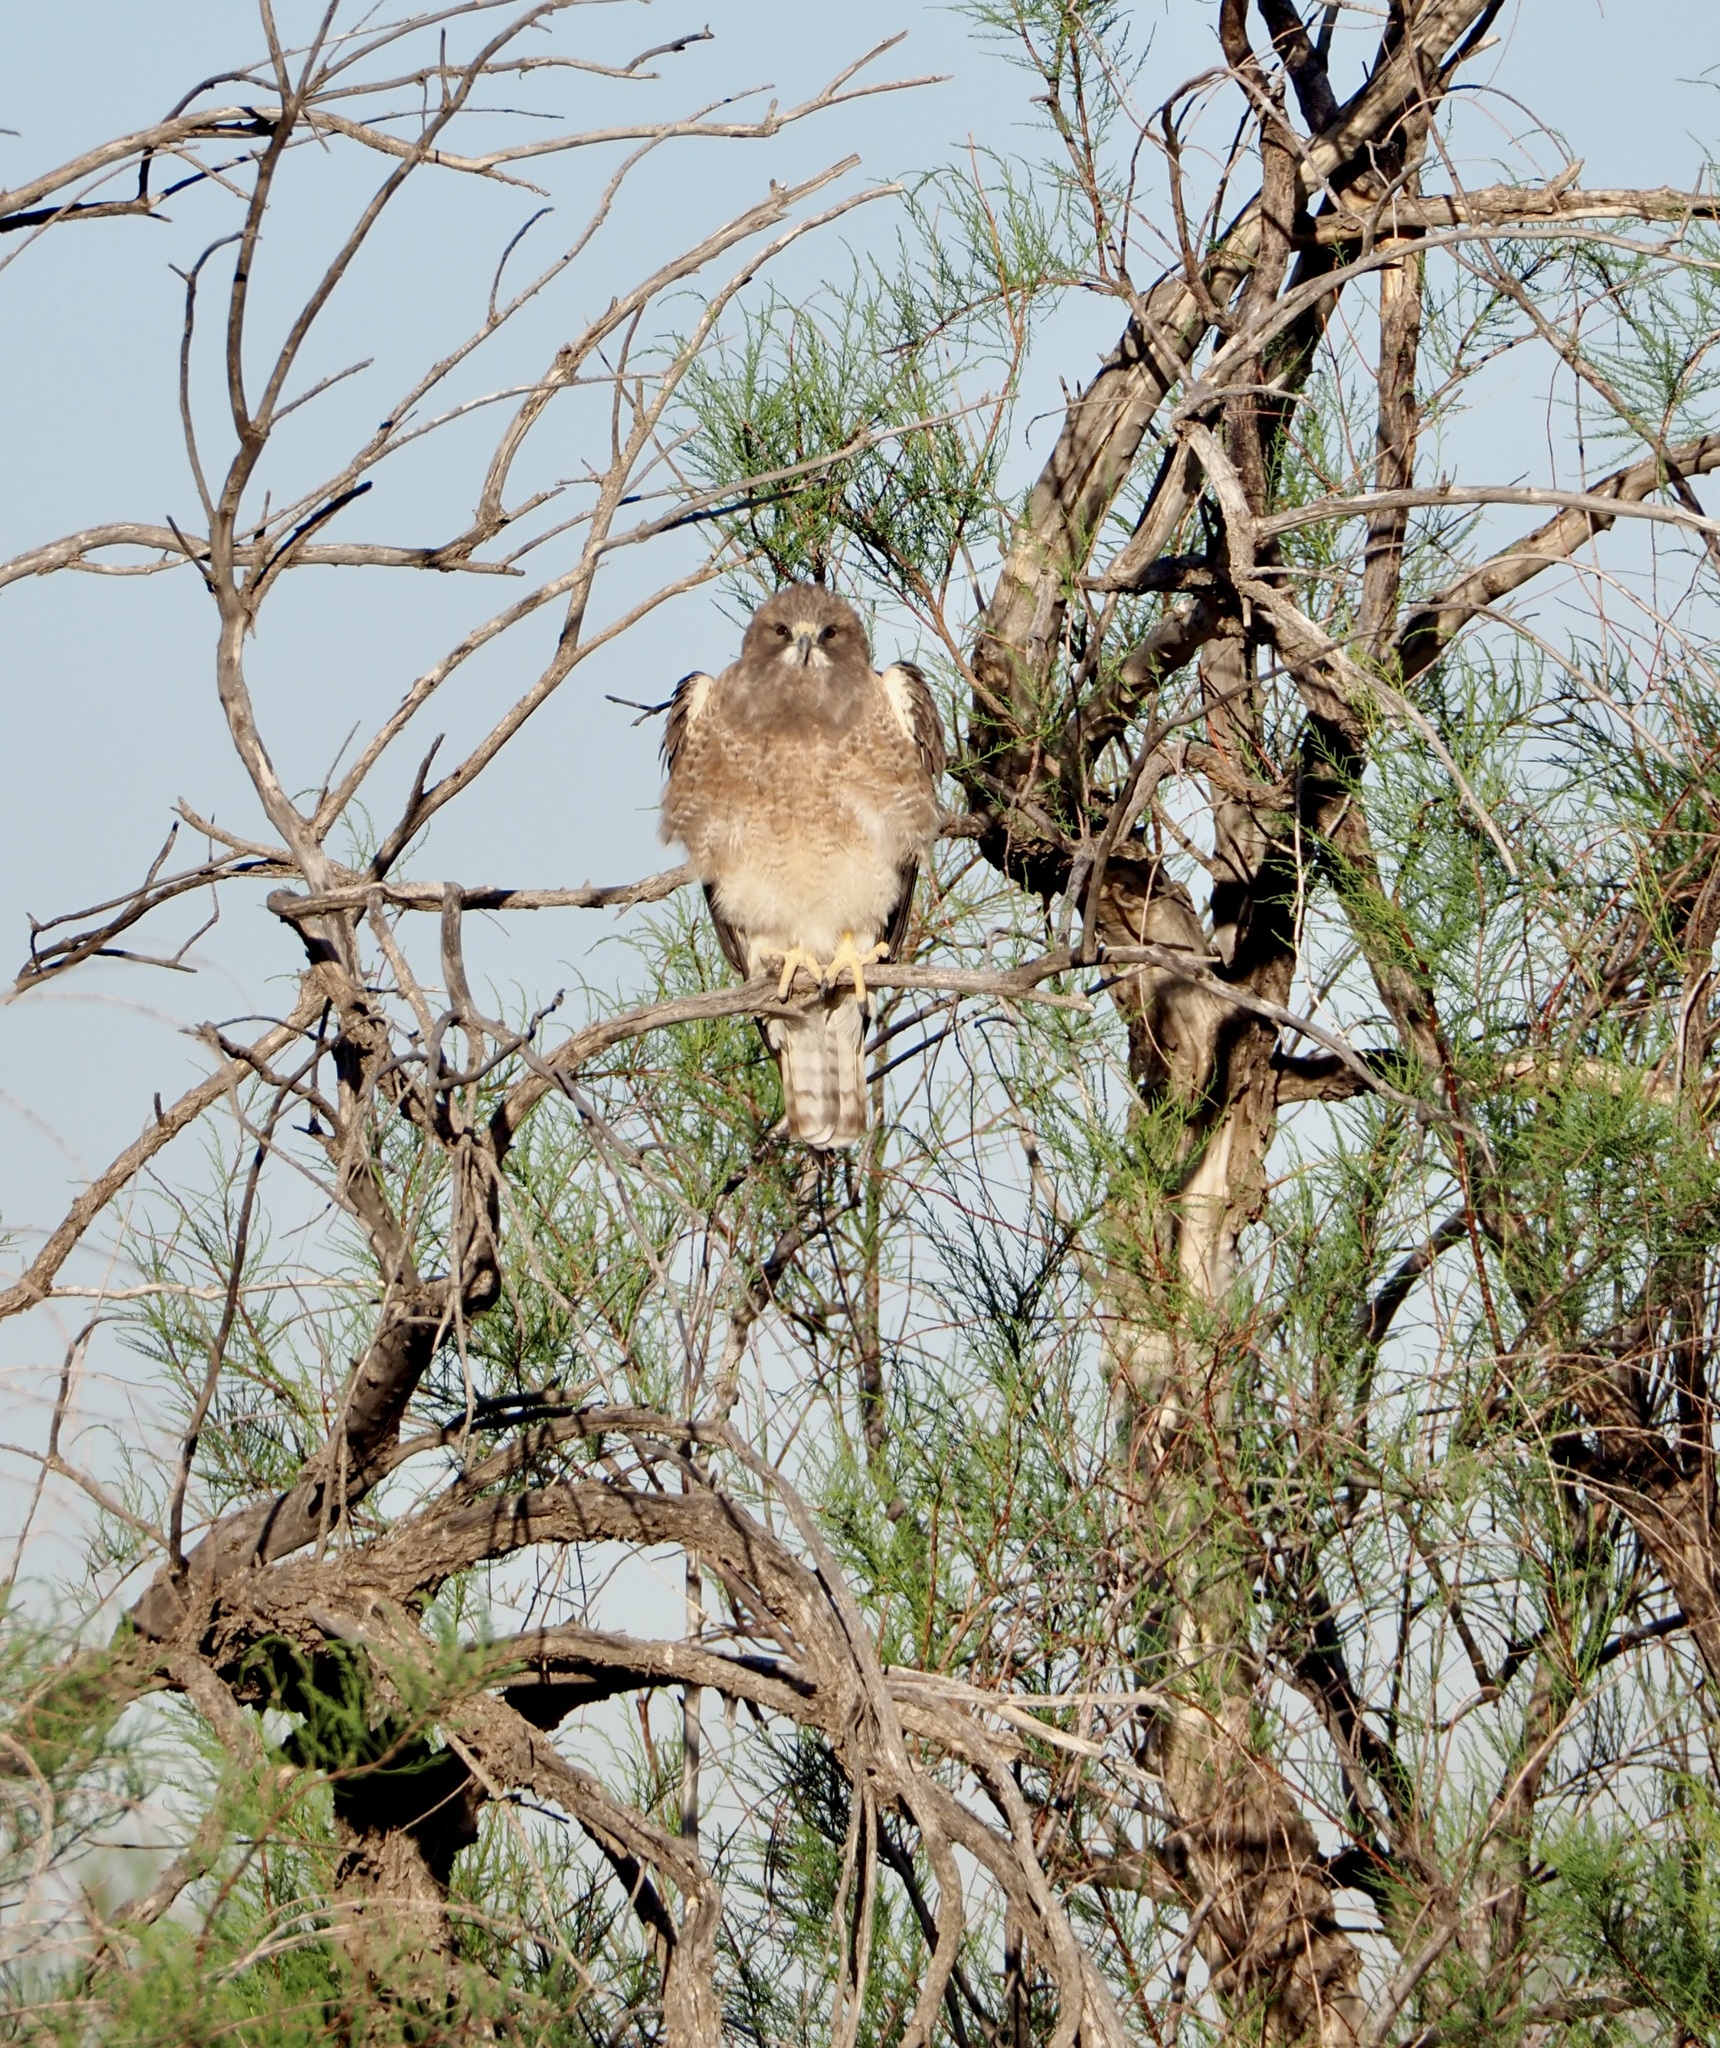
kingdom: Animalia
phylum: Chordata
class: Aves
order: Accipitriformes
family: Accipitridae
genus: Buteo
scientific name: Buteo swainsoni
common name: Swainson's hawk
